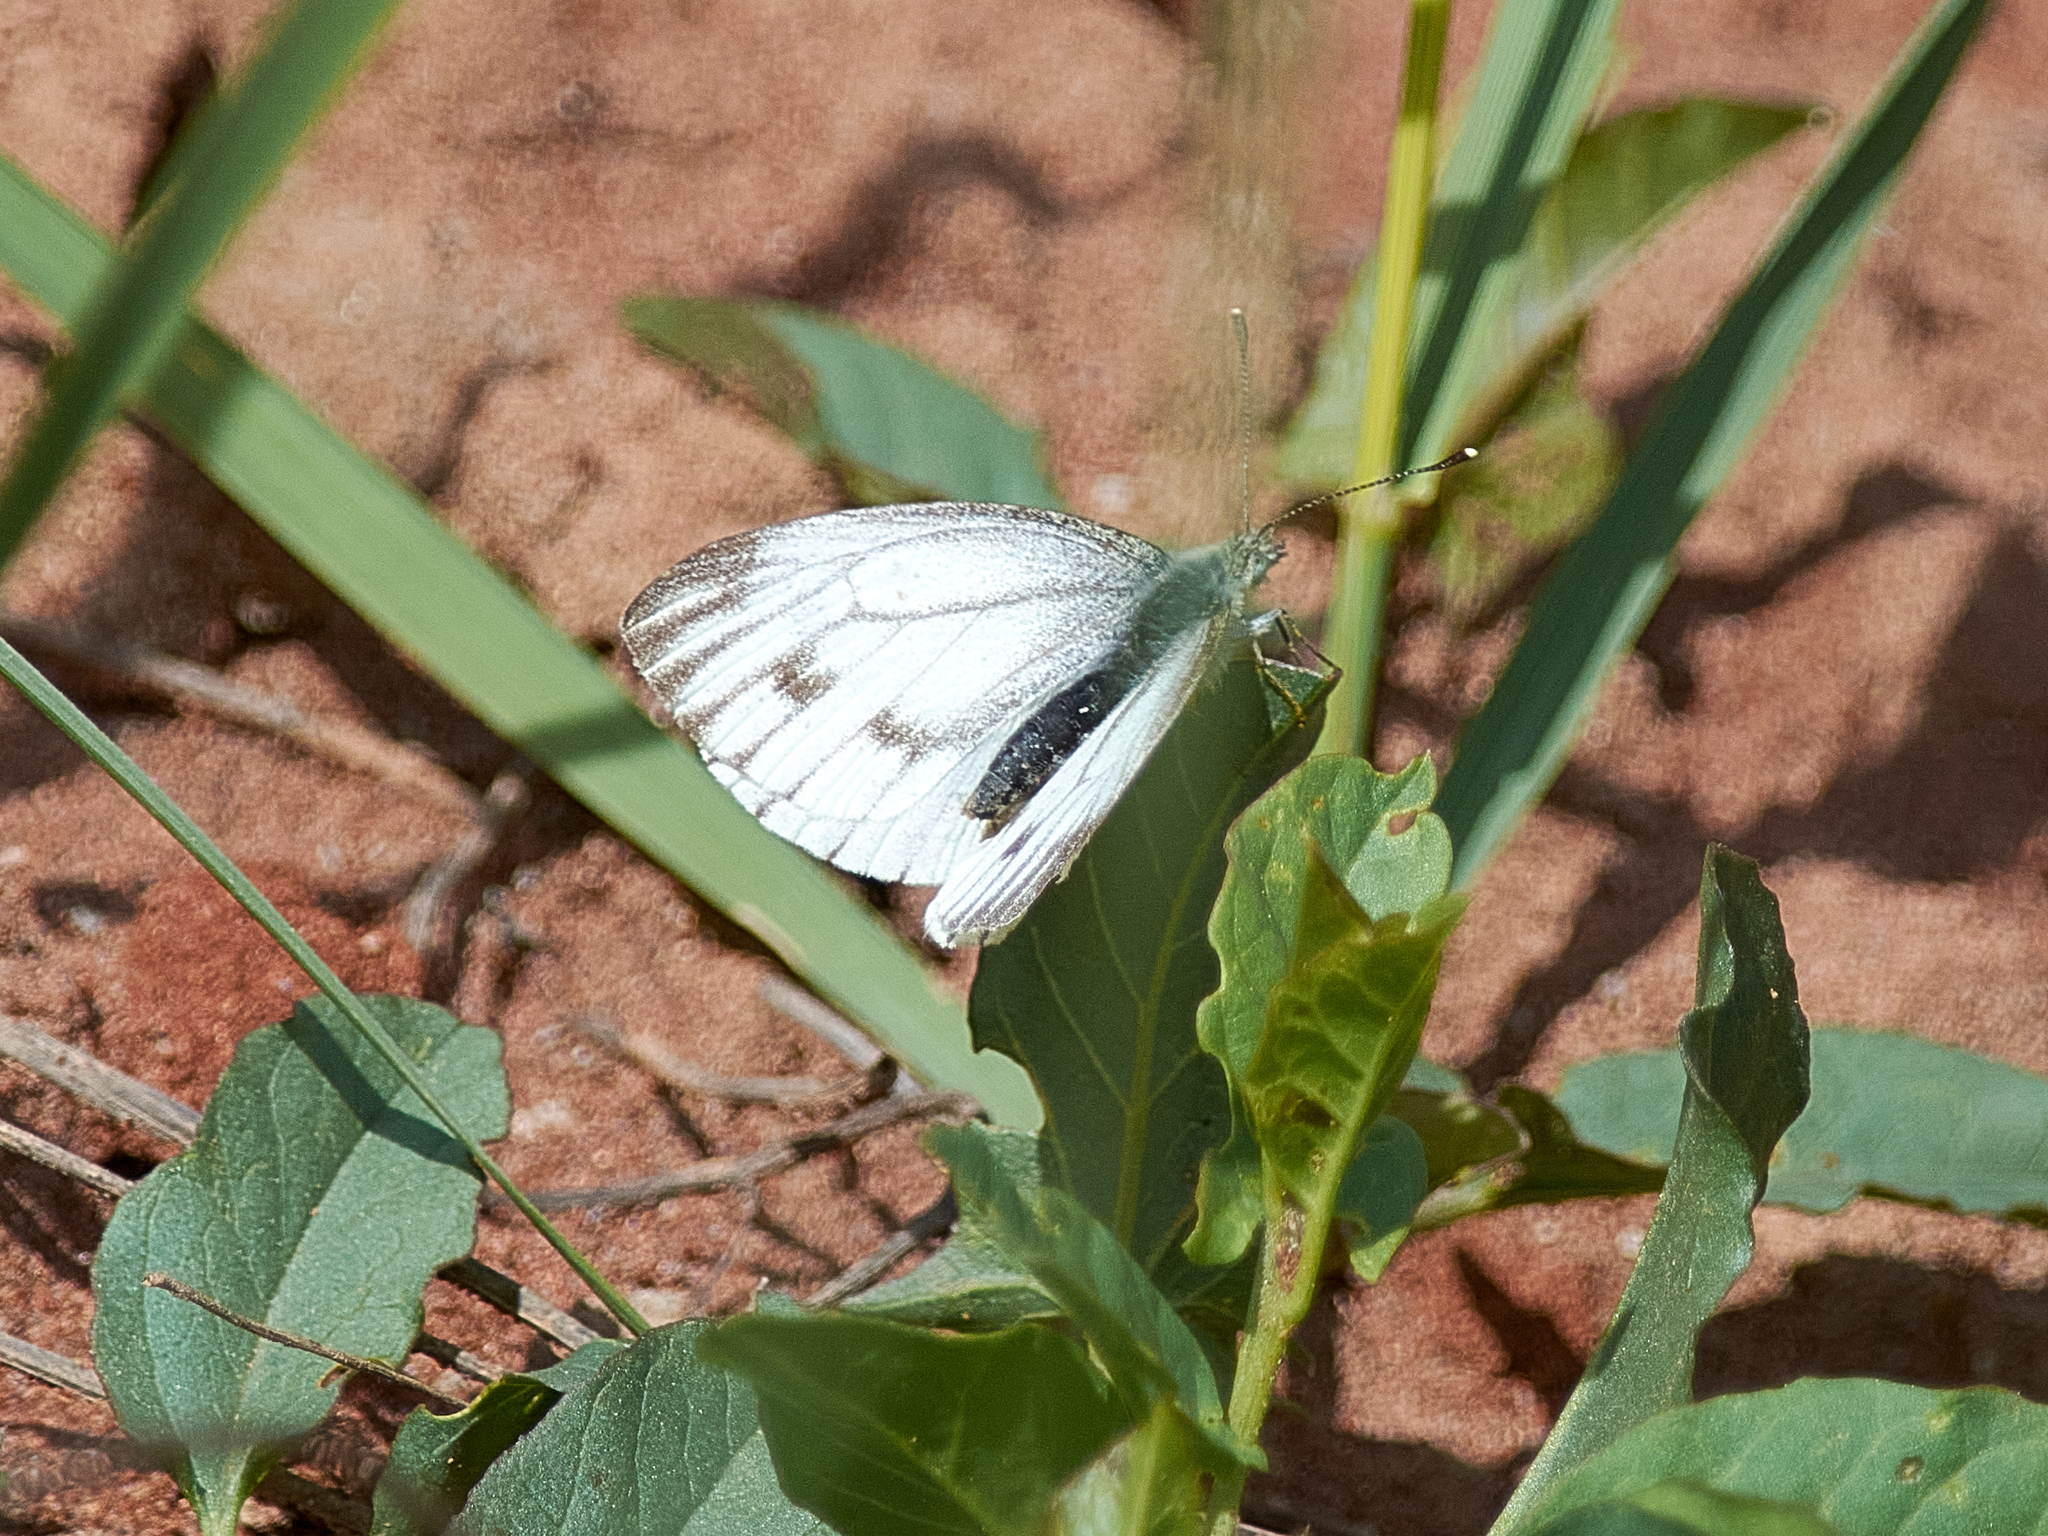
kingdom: Animalia
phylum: Arthropoda
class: Insecta
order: Lepidoptera
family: Pieridae
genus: Pieris
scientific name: Pieris napi
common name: Green-veined white
